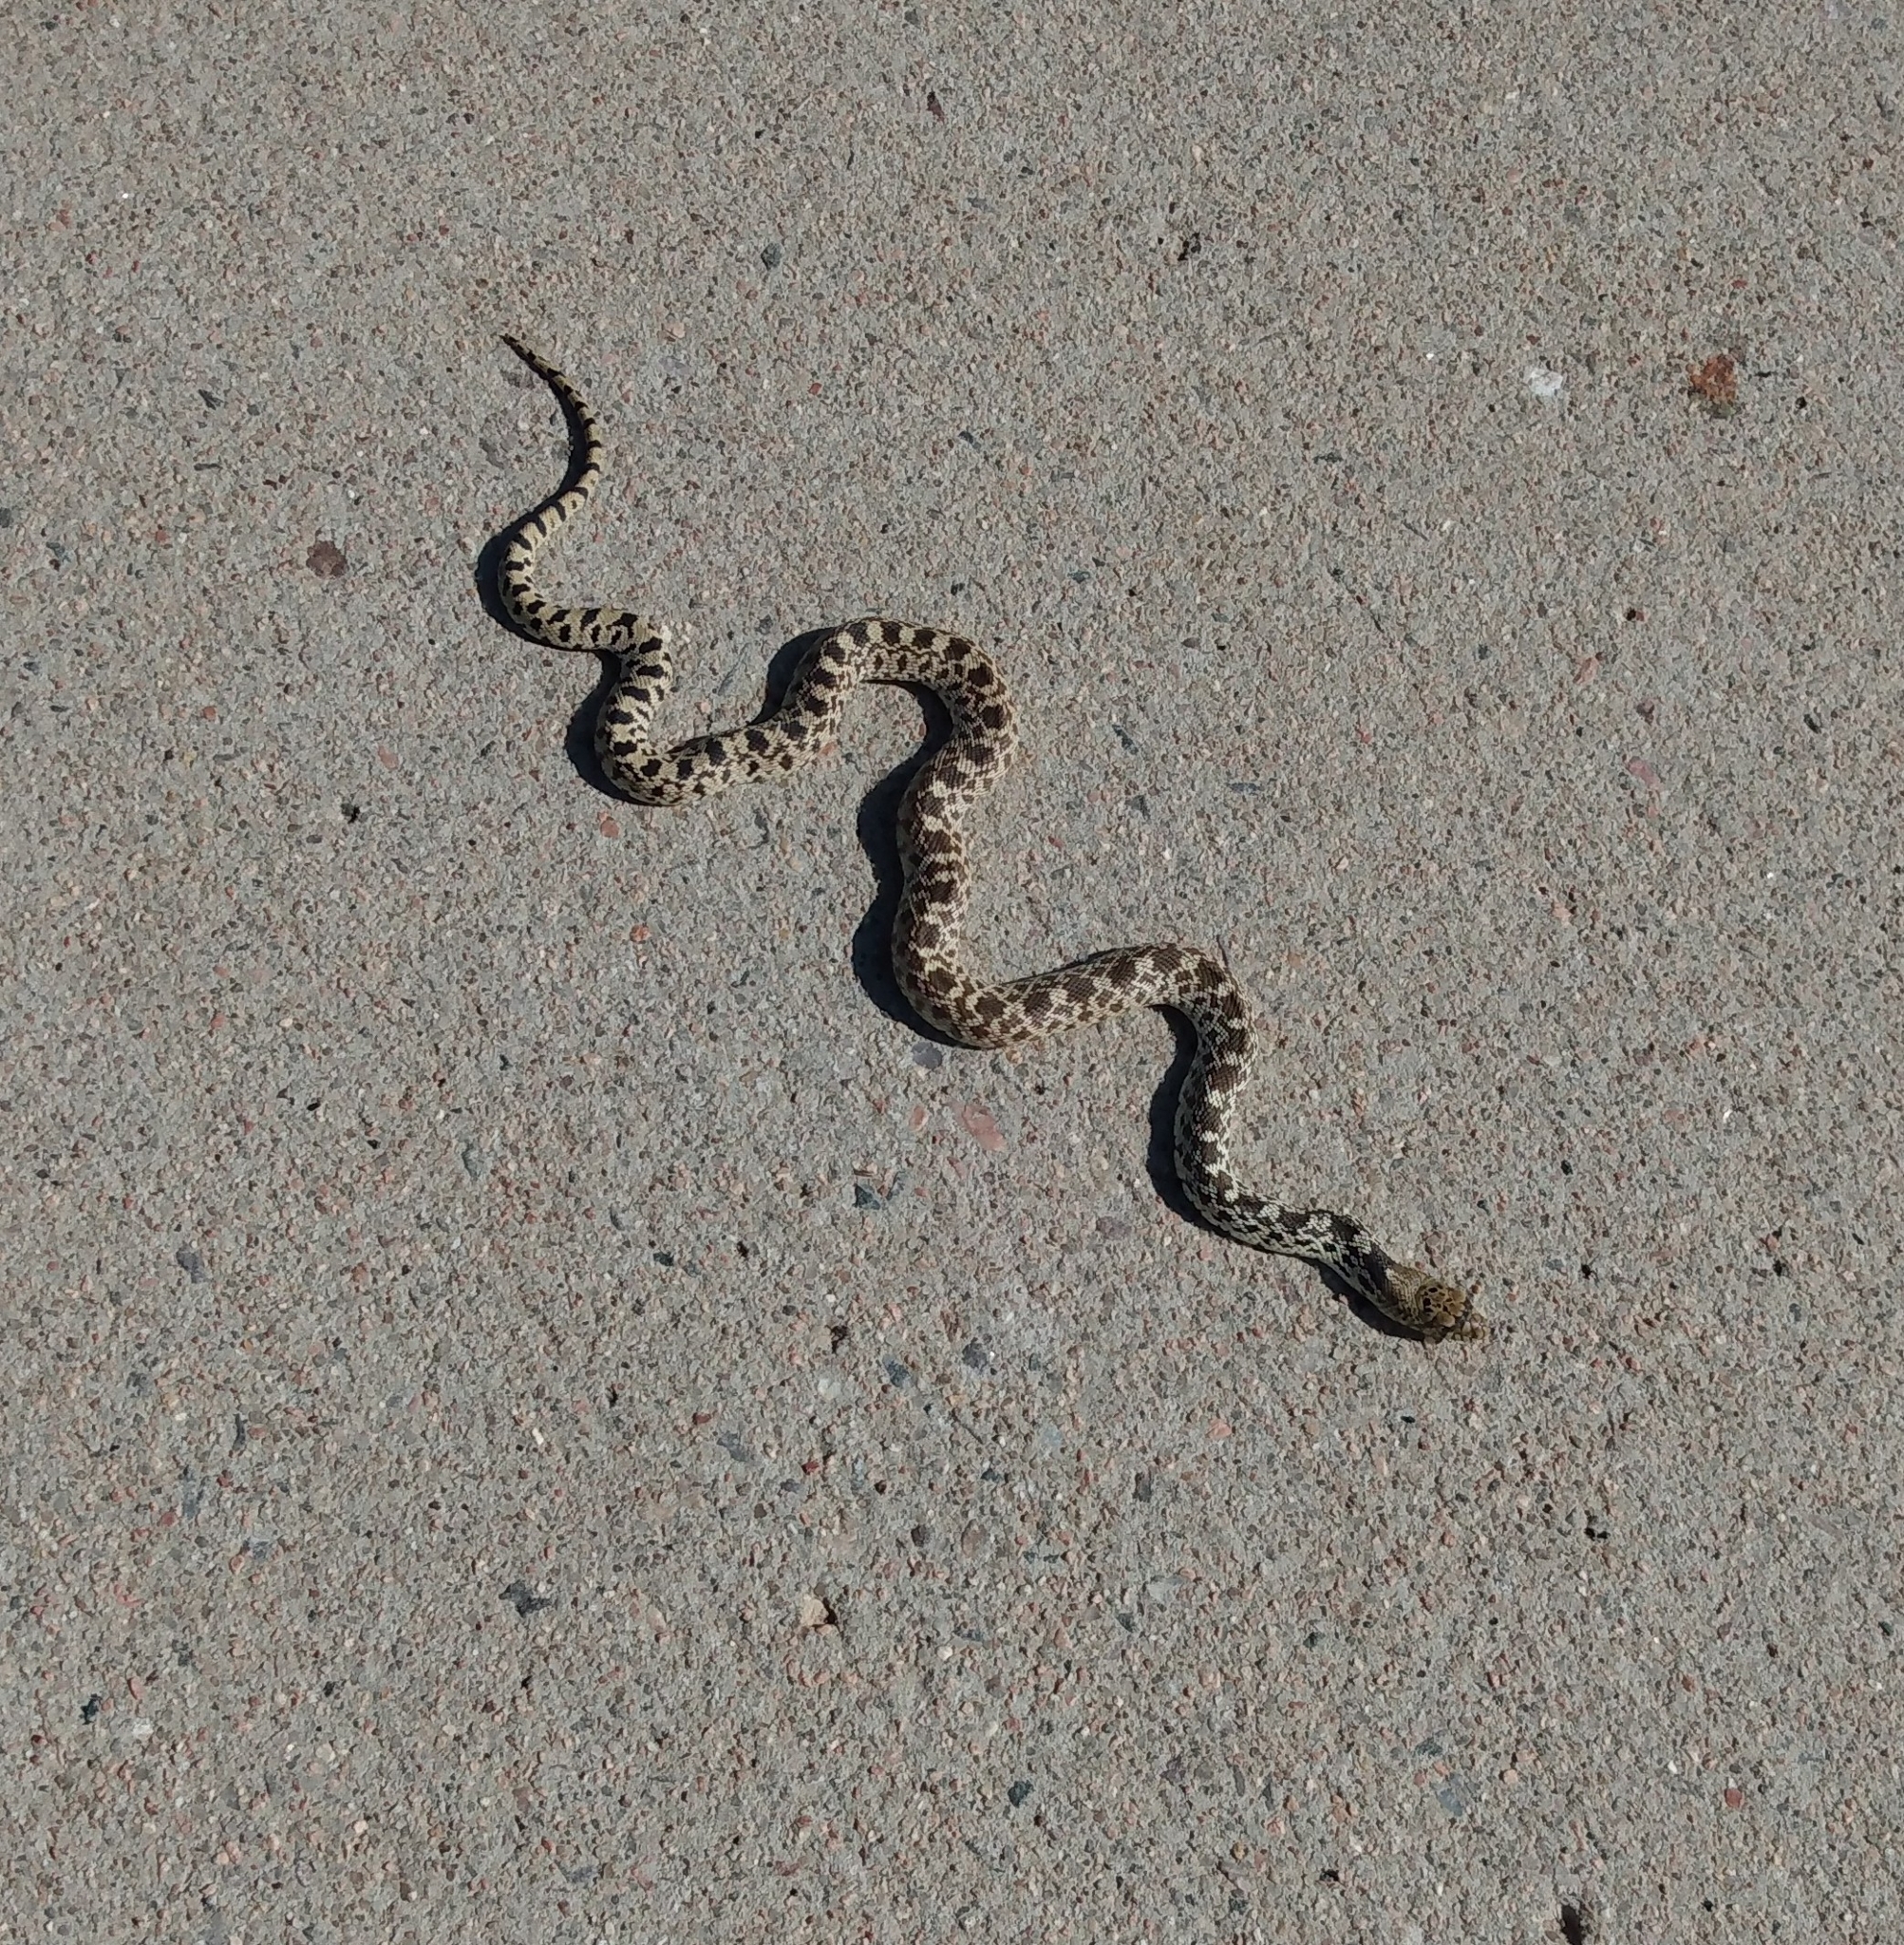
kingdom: Animalia
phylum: Chordata
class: Squamata
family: Colubridae
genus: Pituophis
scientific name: Pituophis catenifer
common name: Gopher snake
